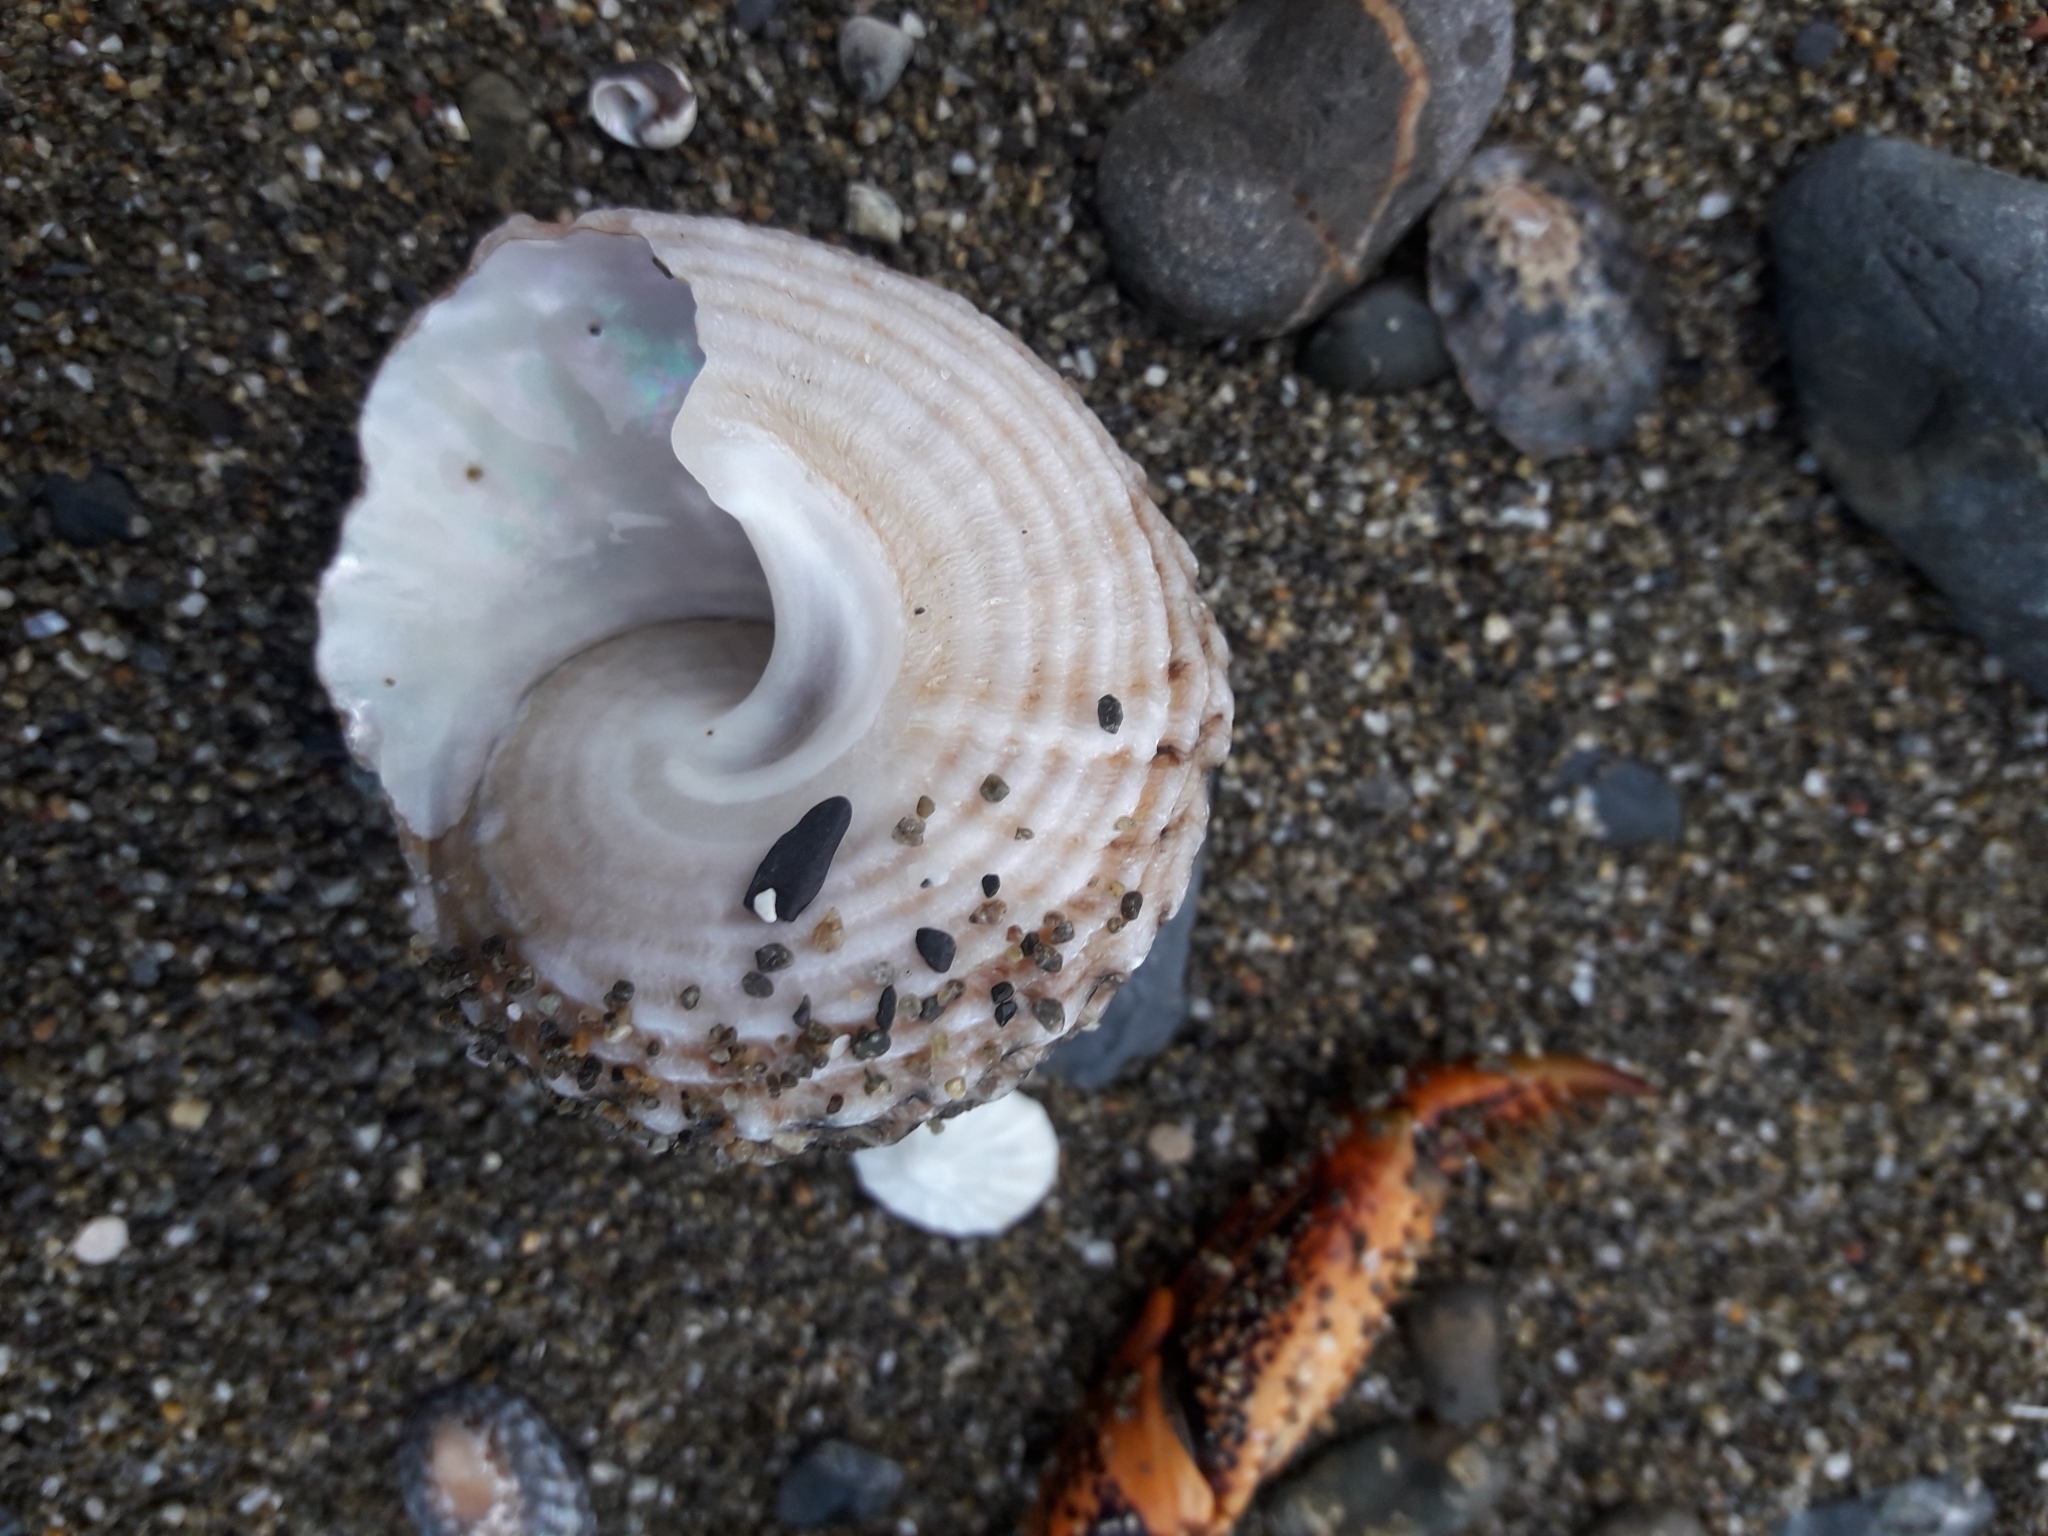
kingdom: Animalia
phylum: Mollusca
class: Gastropoda
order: Trochida
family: Turbinidae
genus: Cookia
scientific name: Cookia sulcata
